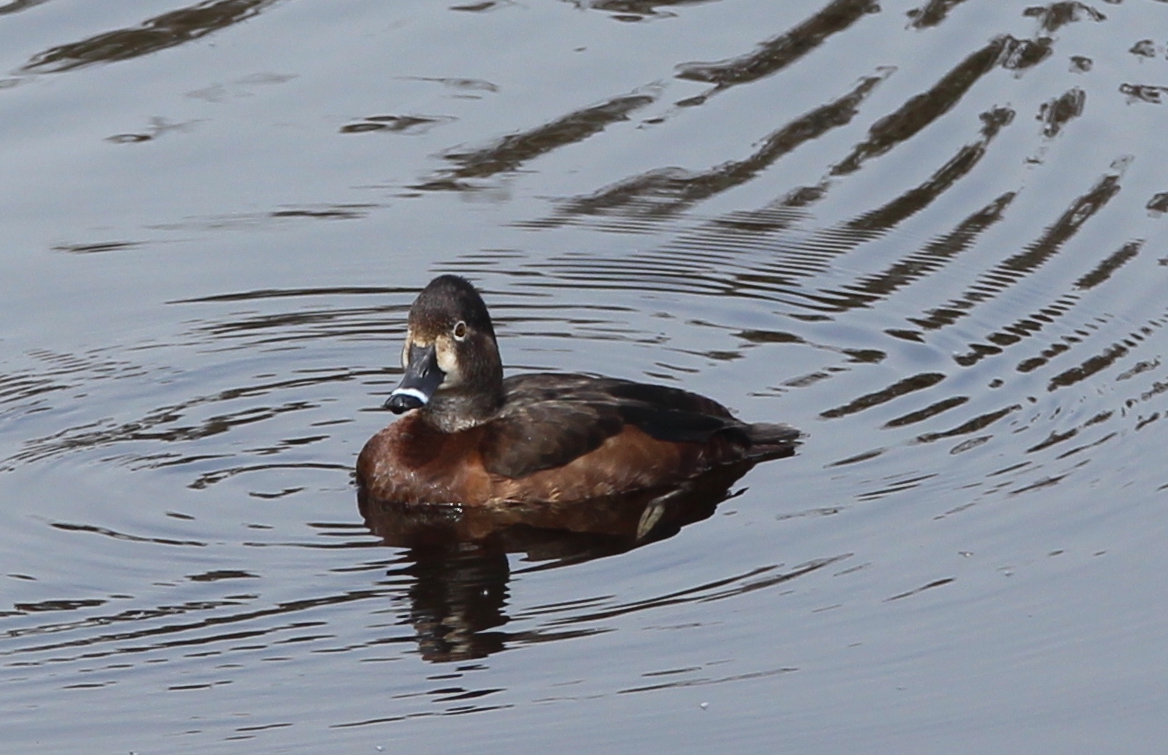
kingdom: Animalia
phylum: Chordata
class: Aves
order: Anseriformes
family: Anatidae
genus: Aythya
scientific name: Aythya collaris
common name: Ring-necked duck
